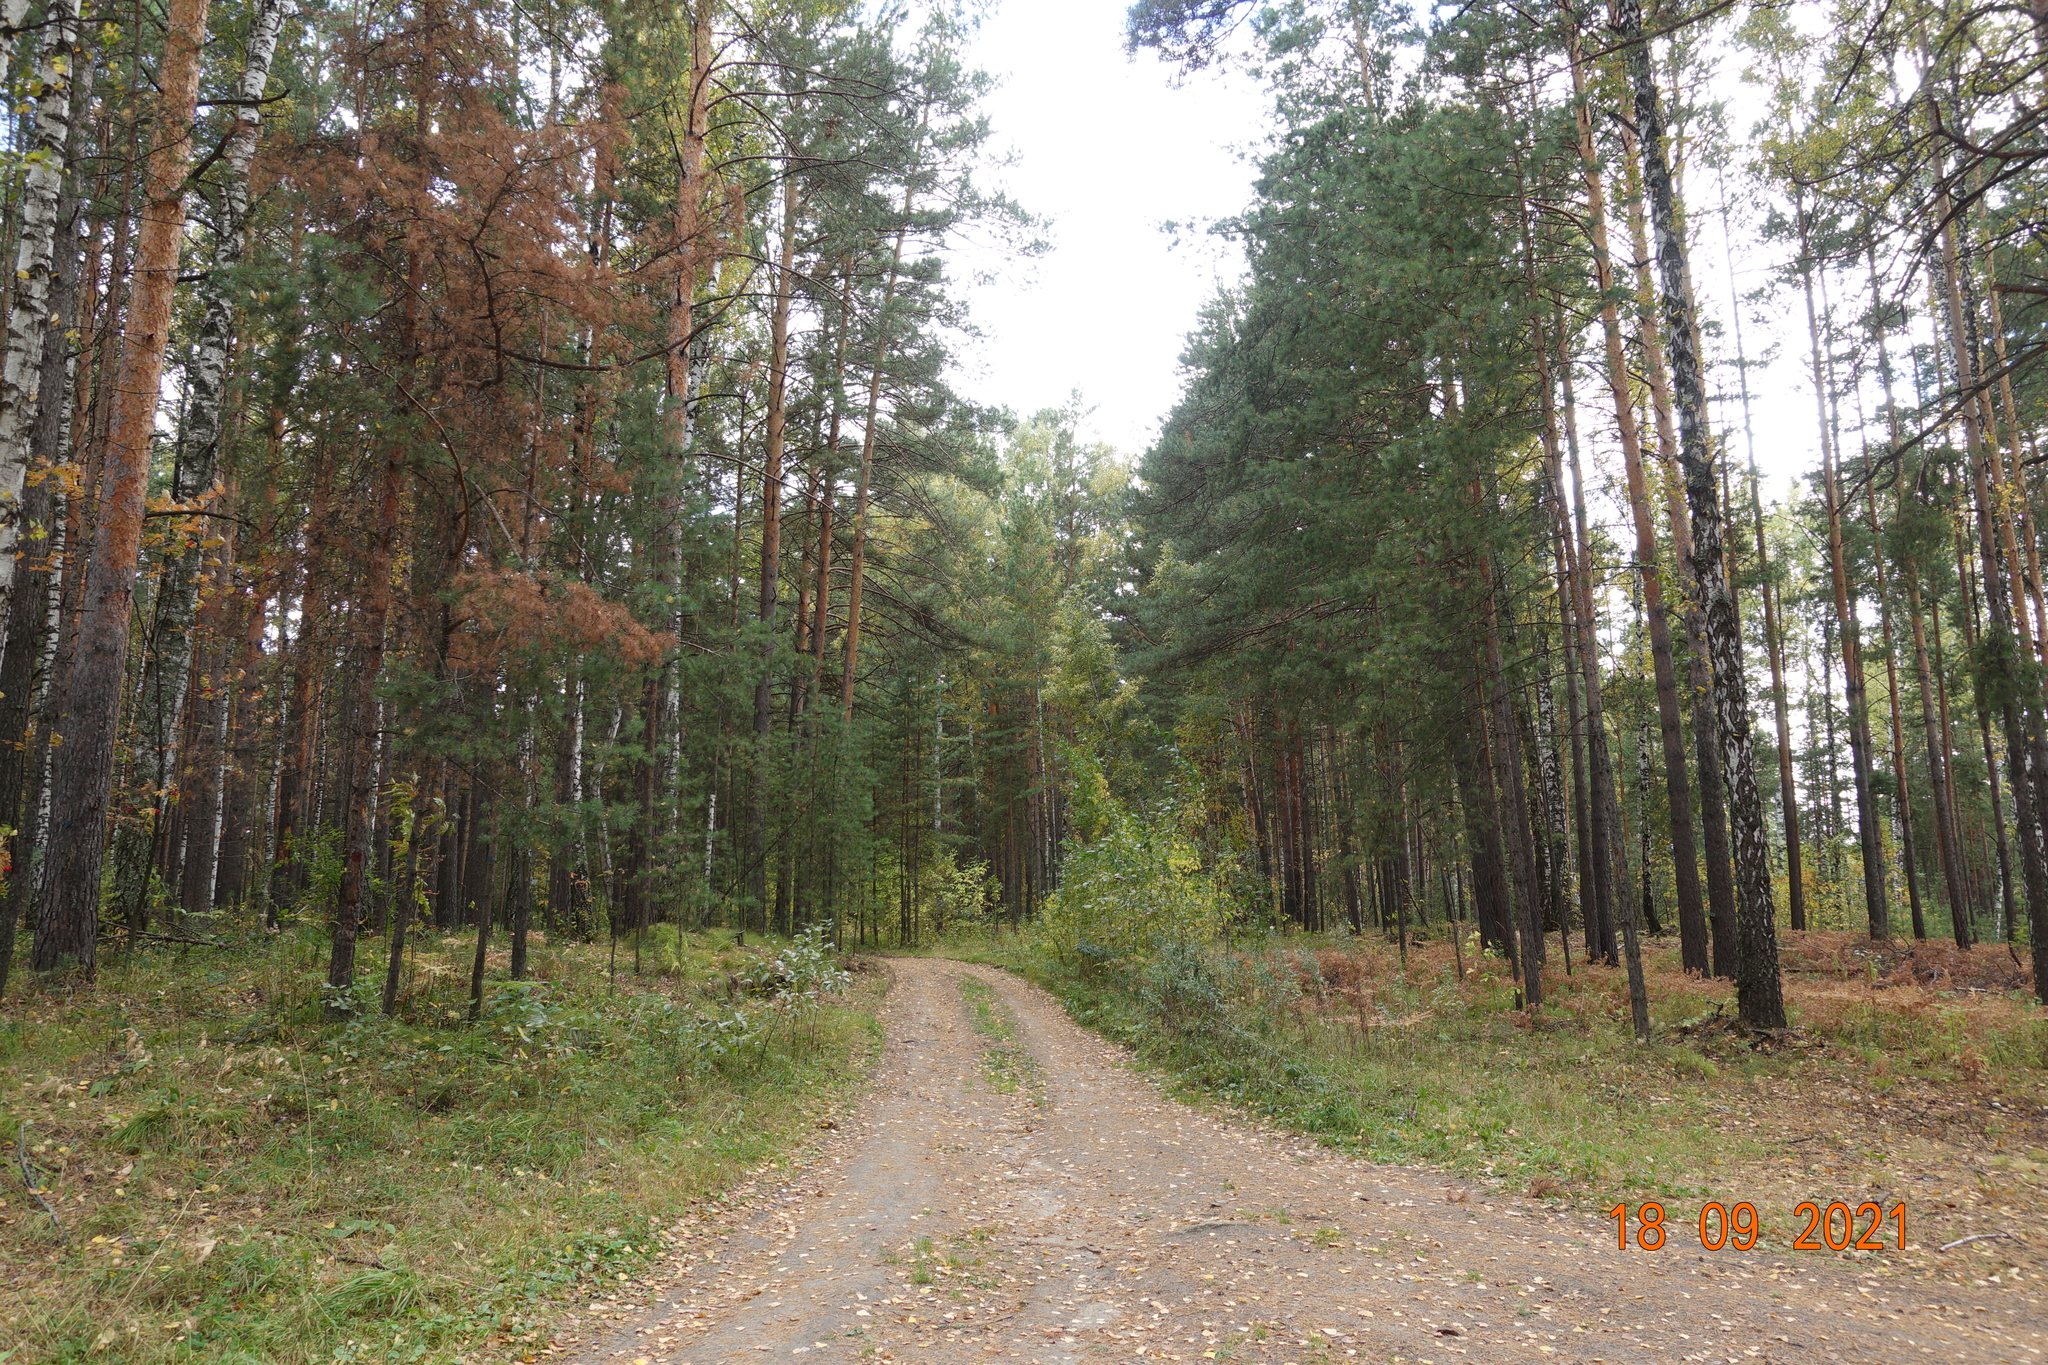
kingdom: Plantae
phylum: Tracheophyta
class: Pinopsida
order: Pinales
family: Pinaceae
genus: Pinus
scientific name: Pinus sylvestris
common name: Scots pine
